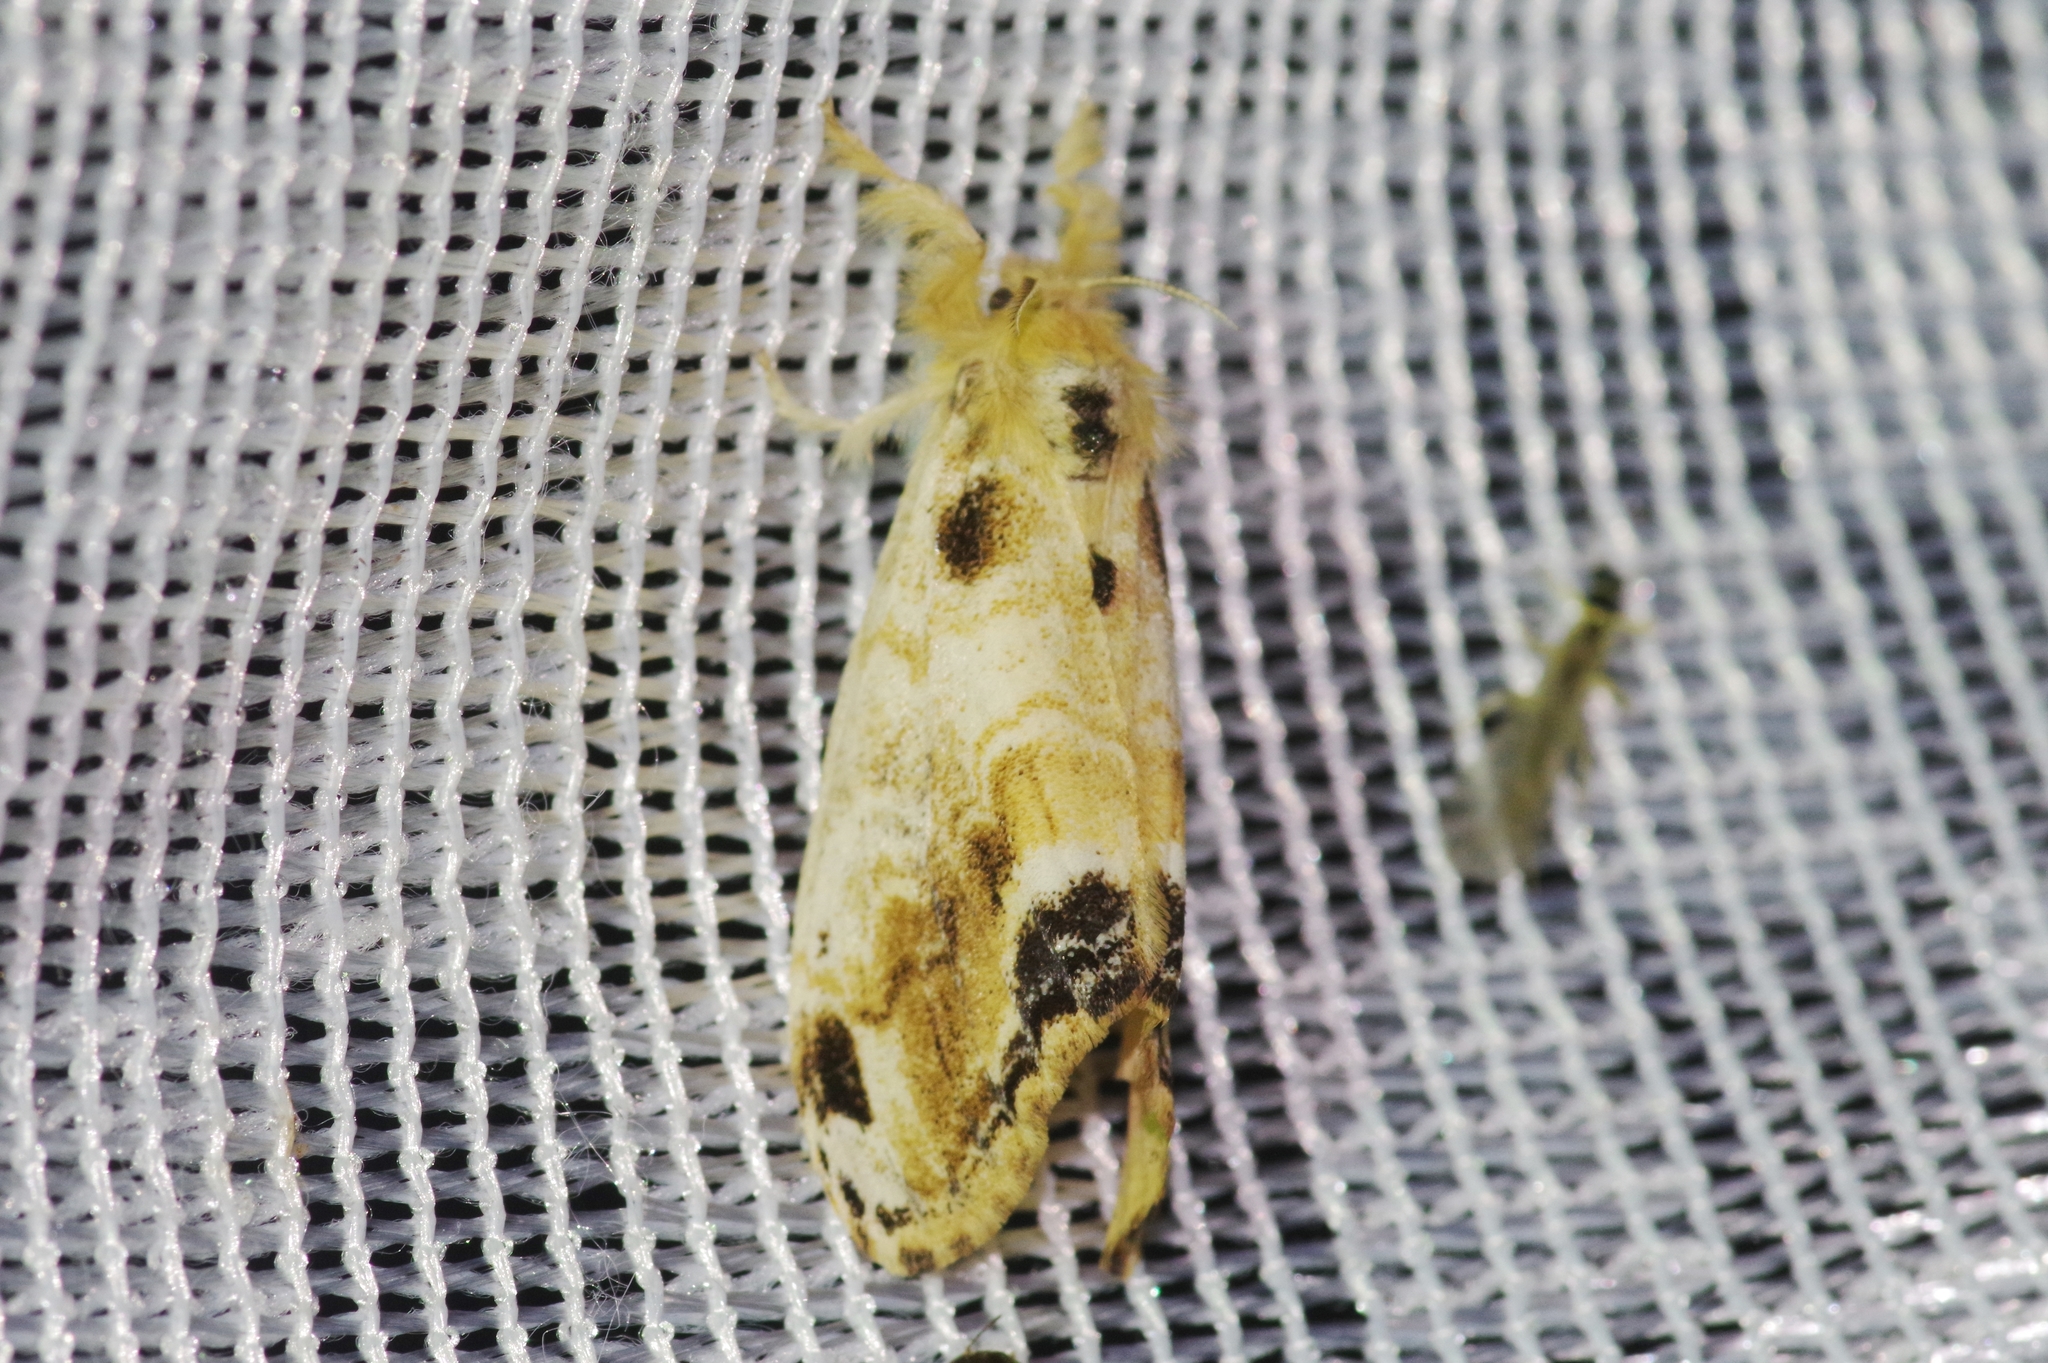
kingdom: Animalia
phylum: Arthropoda
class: Insecta
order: Lepidoptera
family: Erebidae
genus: Orgyia
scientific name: Orgyia thyellina
